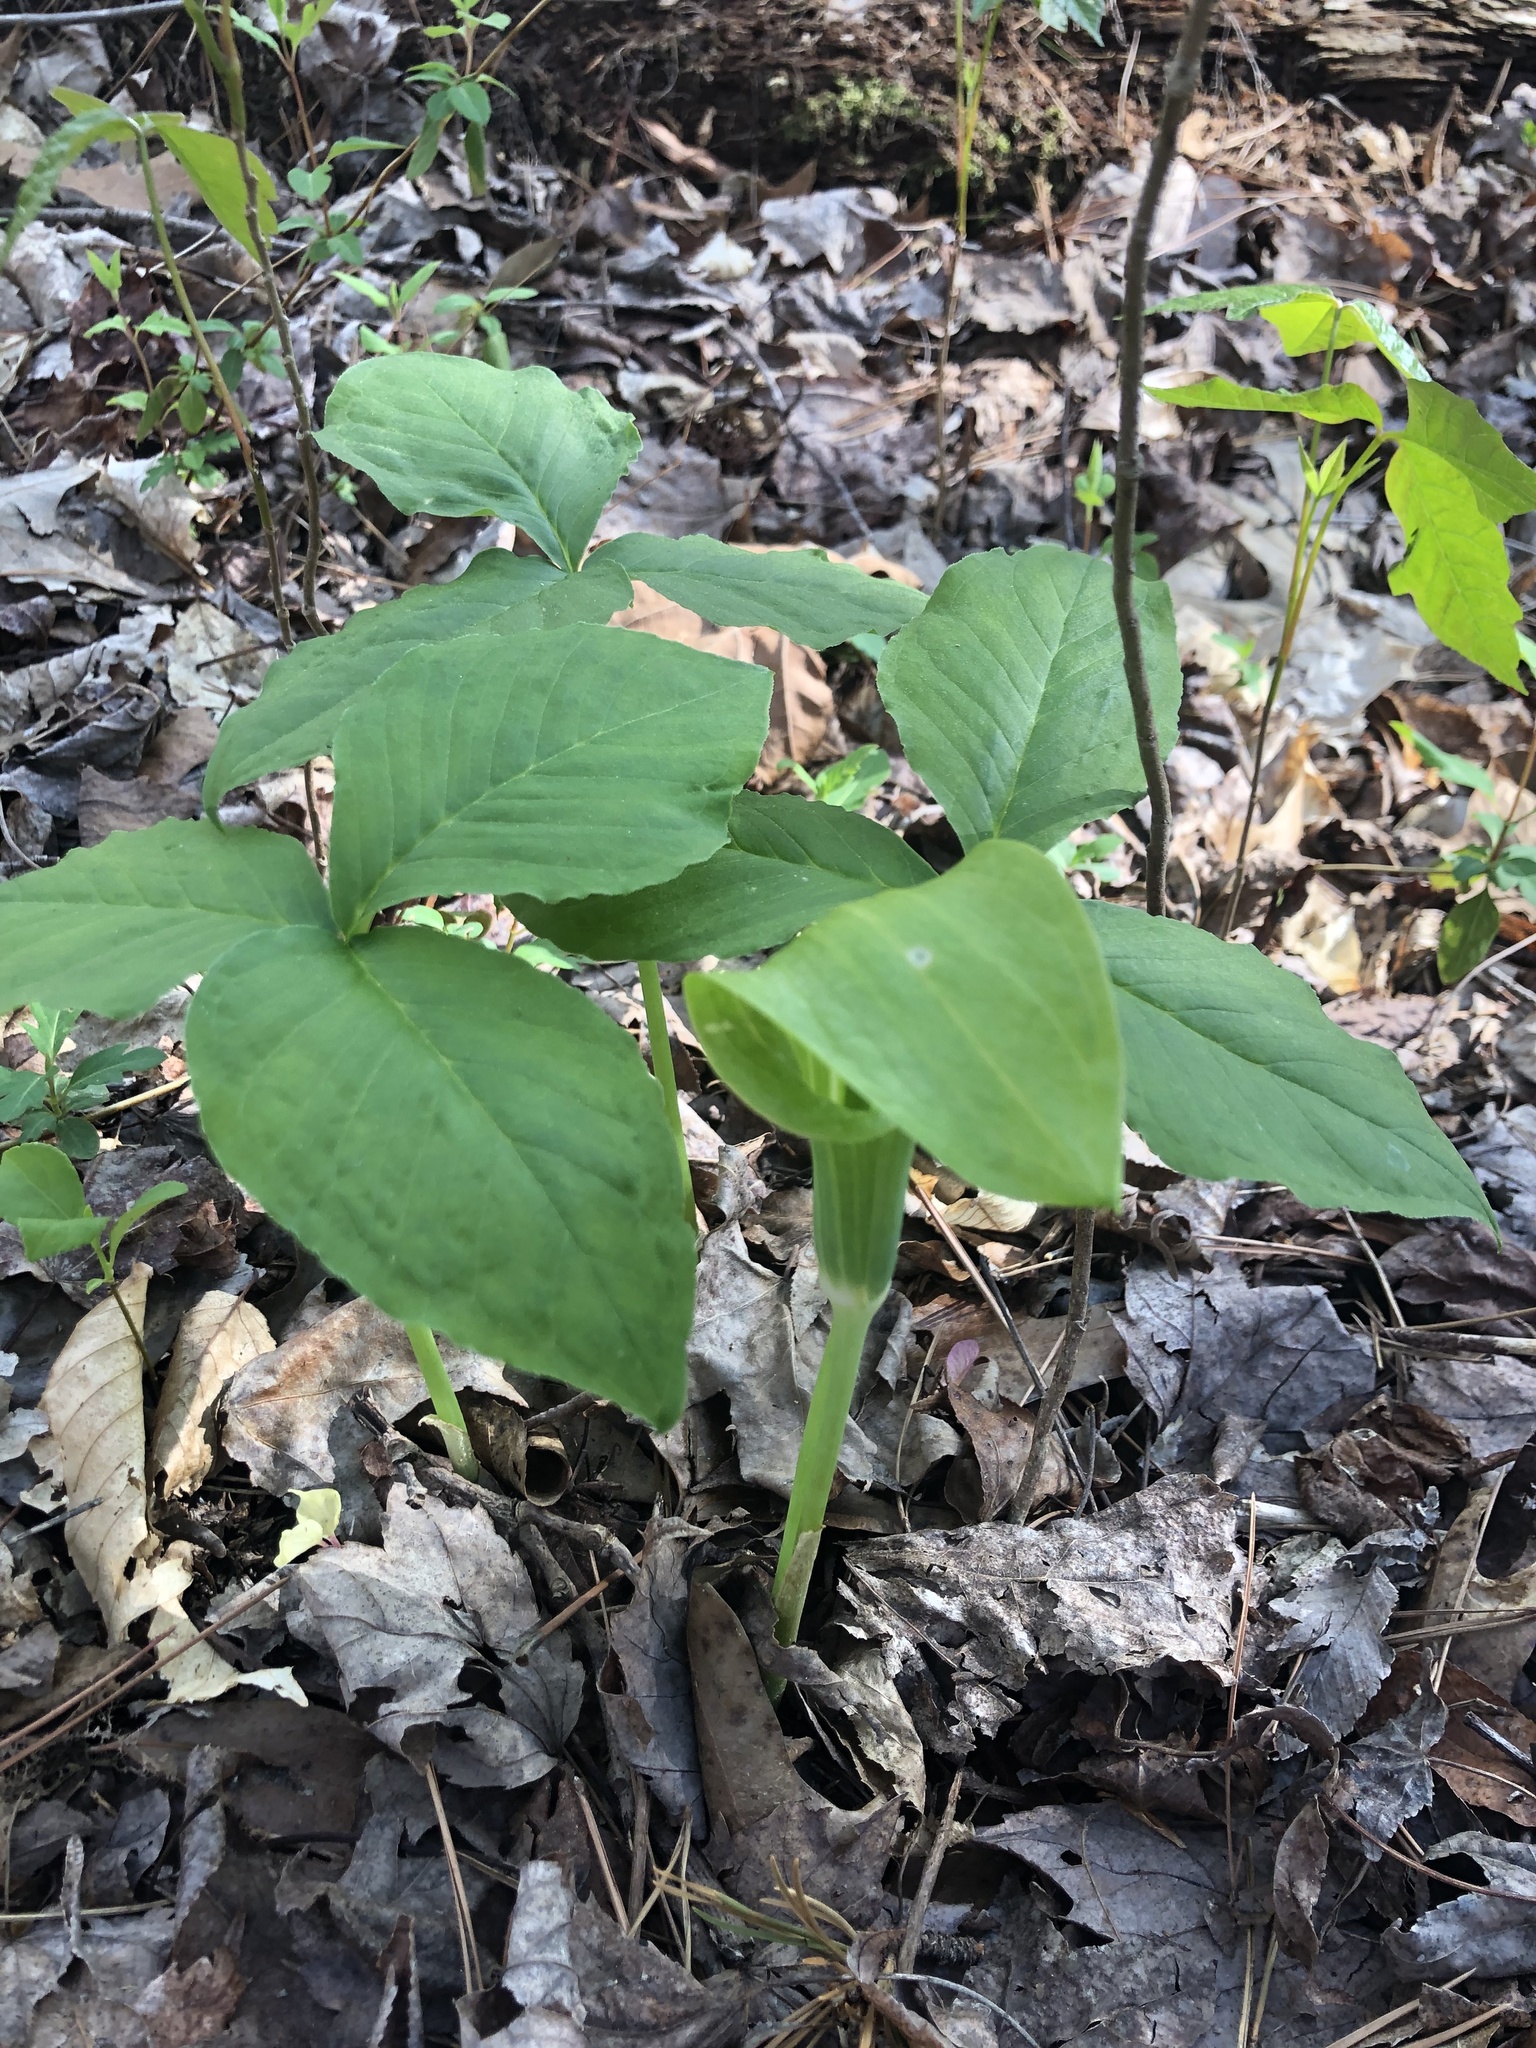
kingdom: Plantae
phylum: Tracheophyta
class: Liliopsida
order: Alismatales
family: Araceae
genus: Arisaema
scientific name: Arisaema triphyllum
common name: Jack-in-the-pulpit
